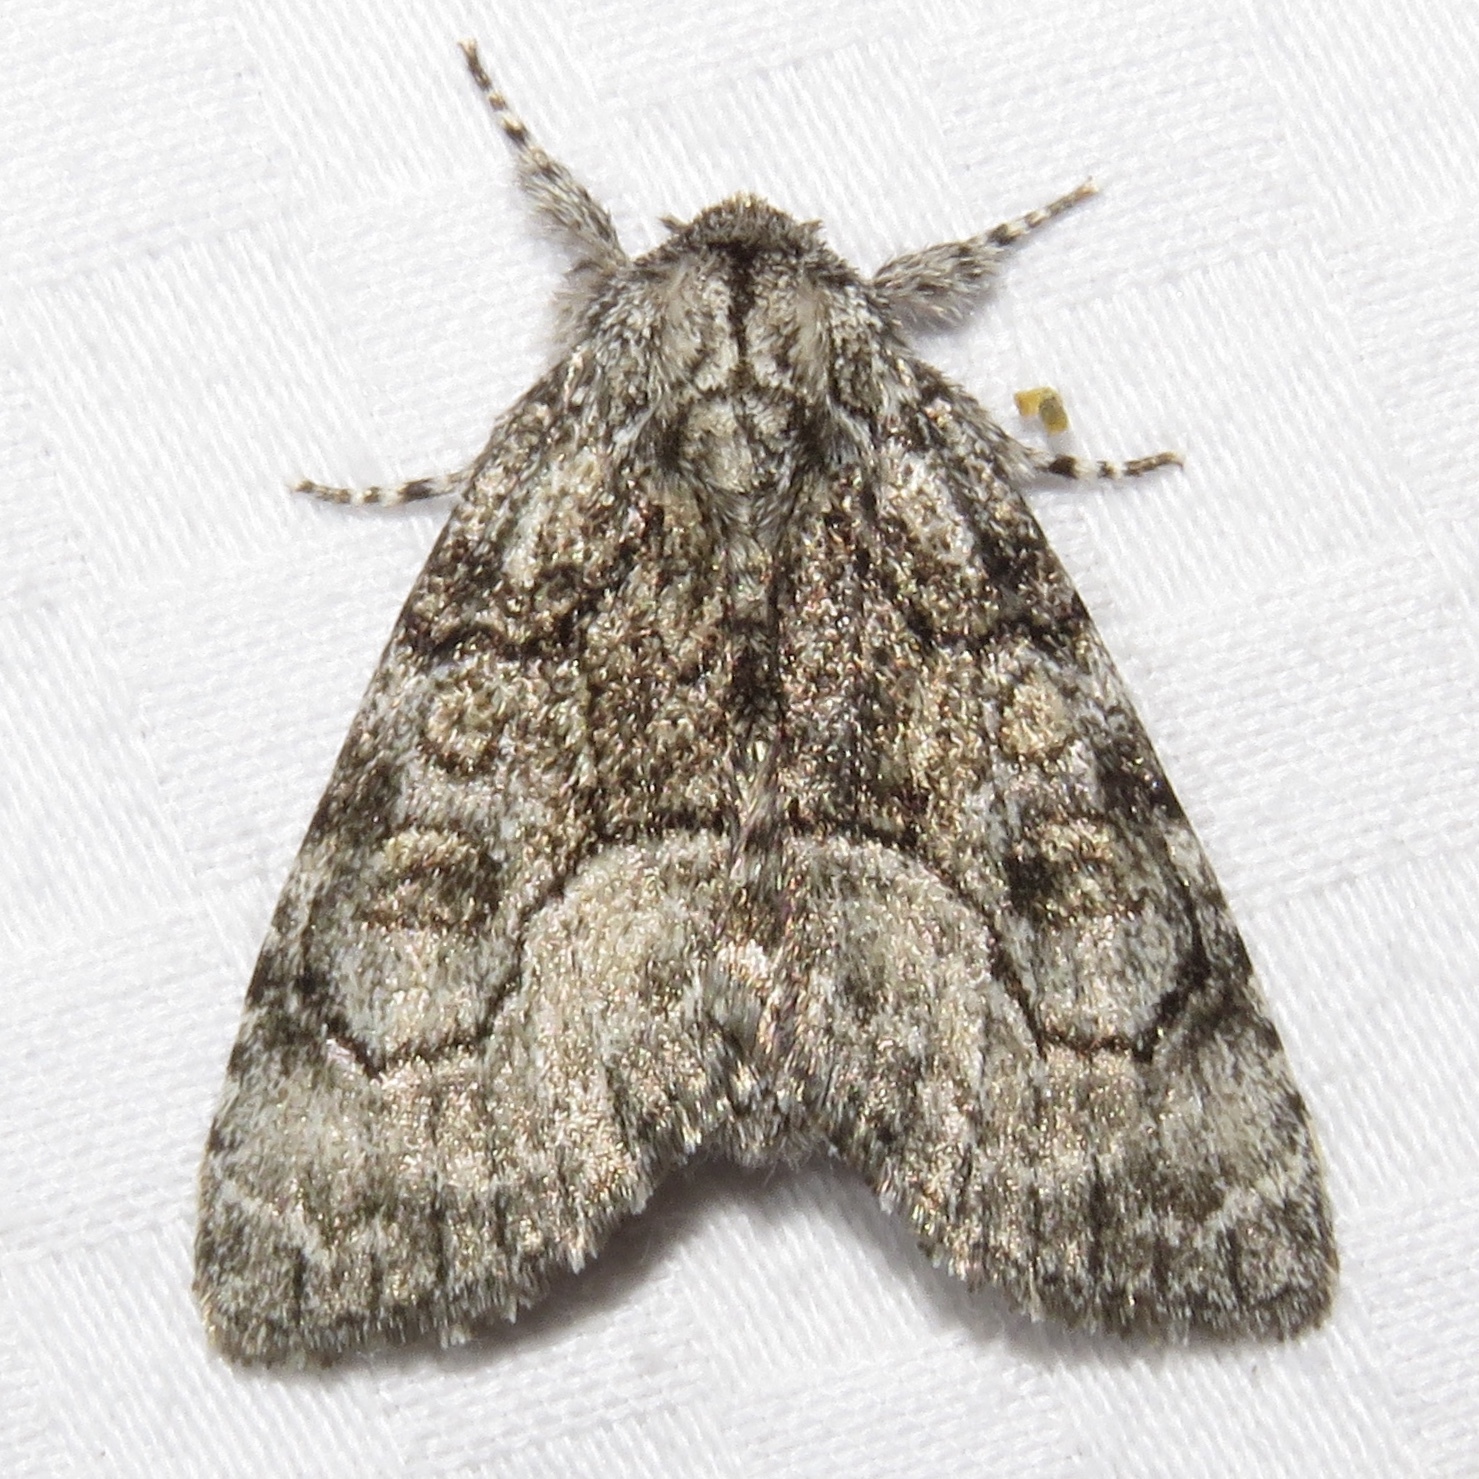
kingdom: Animalia
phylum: Arthropoda
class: Insecta
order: Lepidoptera
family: Noctuidae
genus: Raphia
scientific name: Raphia frater
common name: Brother
